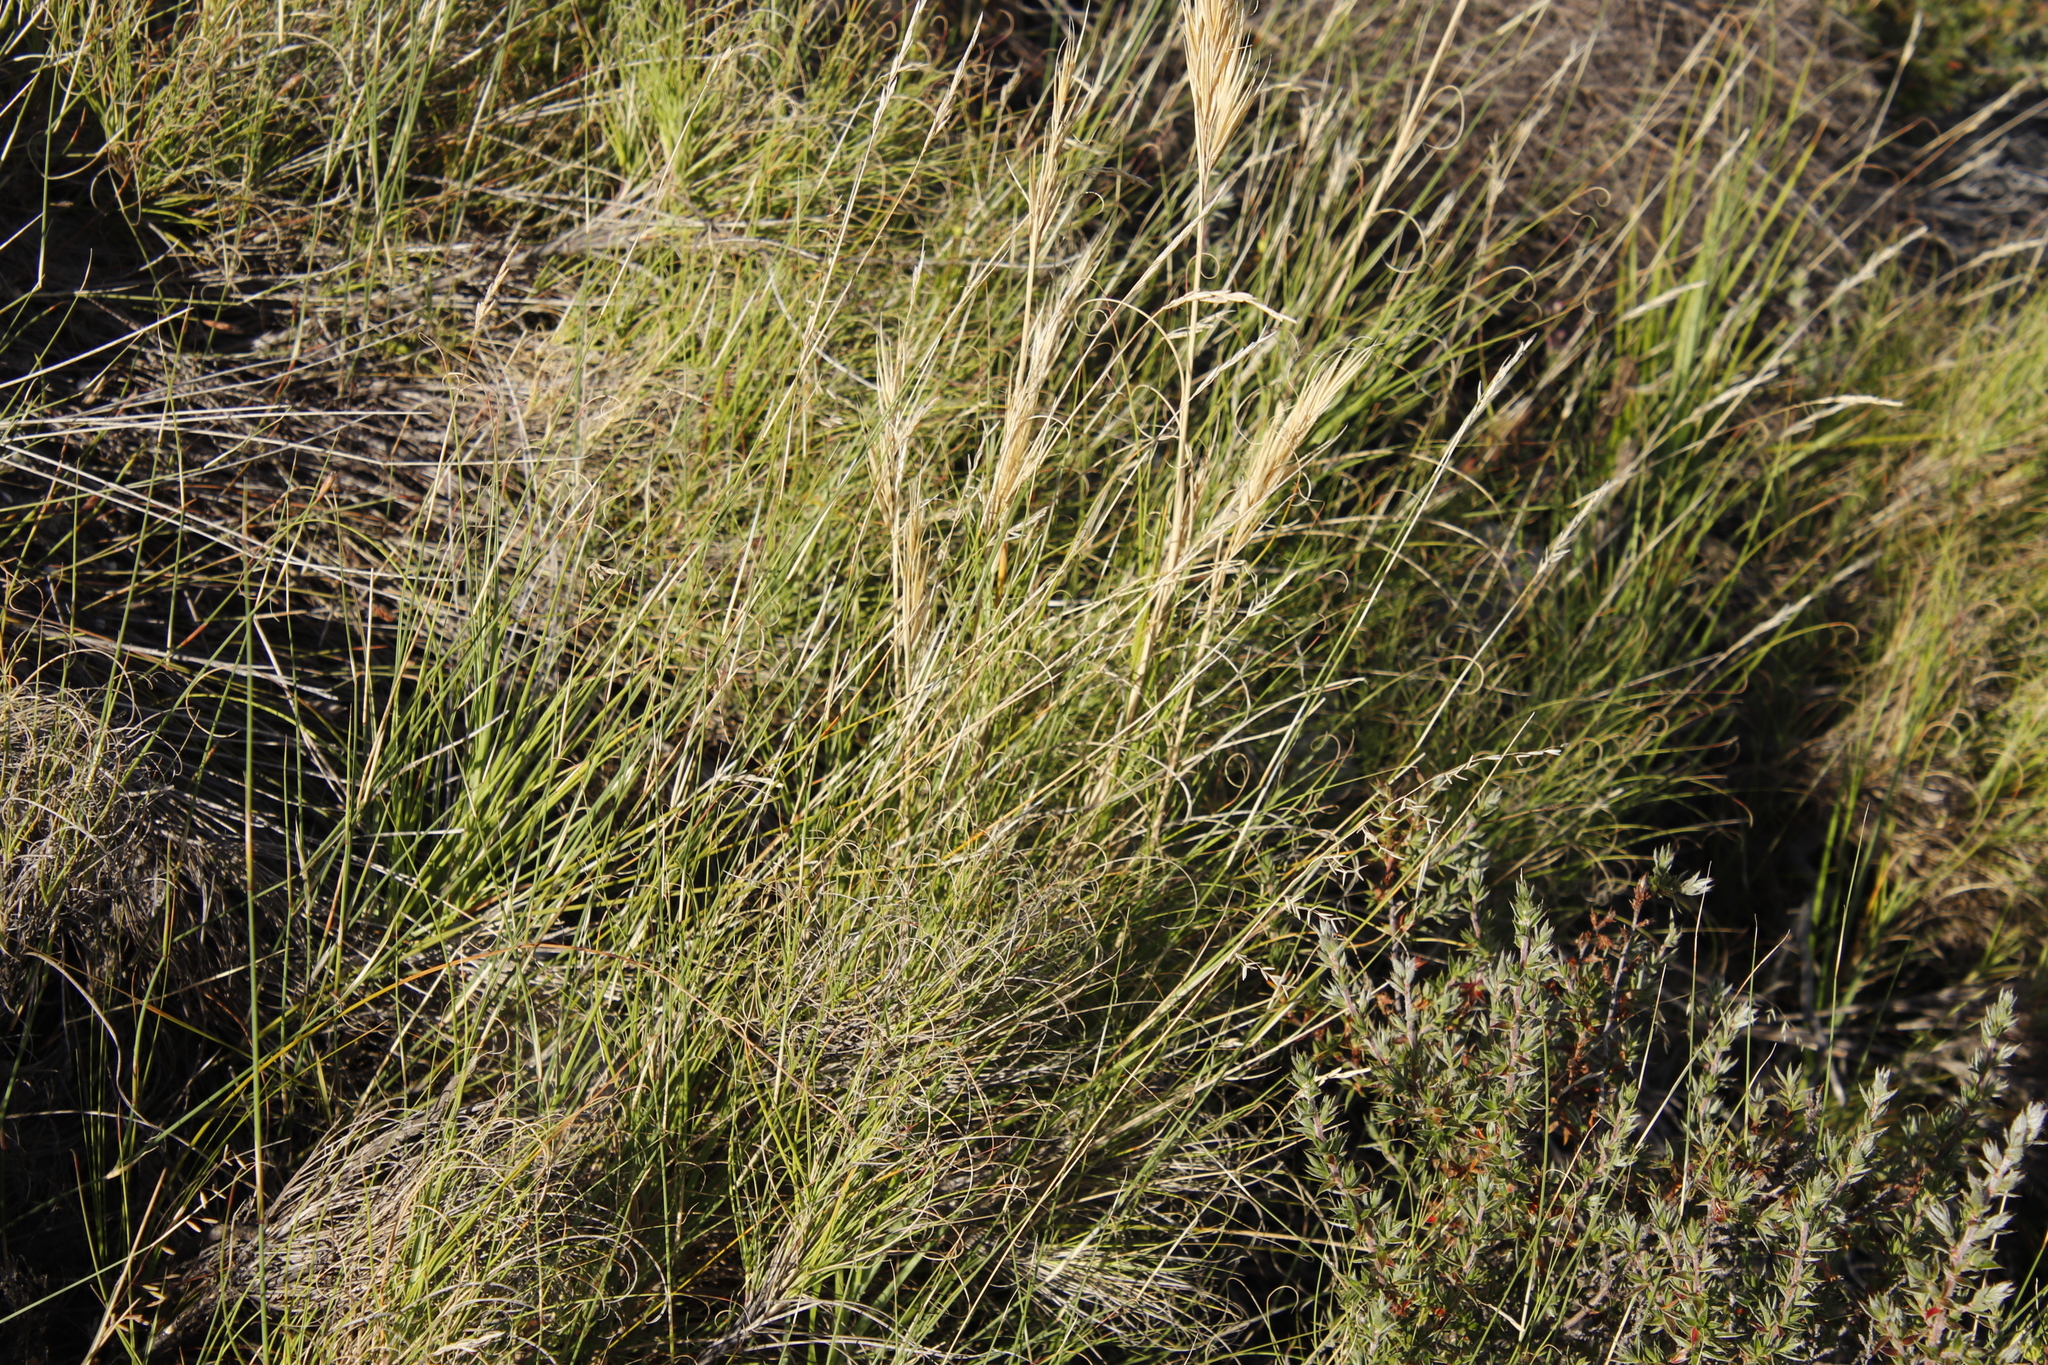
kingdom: Plantae
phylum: Tracheophyta
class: Liliopsida
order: Poales
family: Poaceae
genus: Pseudopentameris
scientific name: Pseudopentameris macrantha
